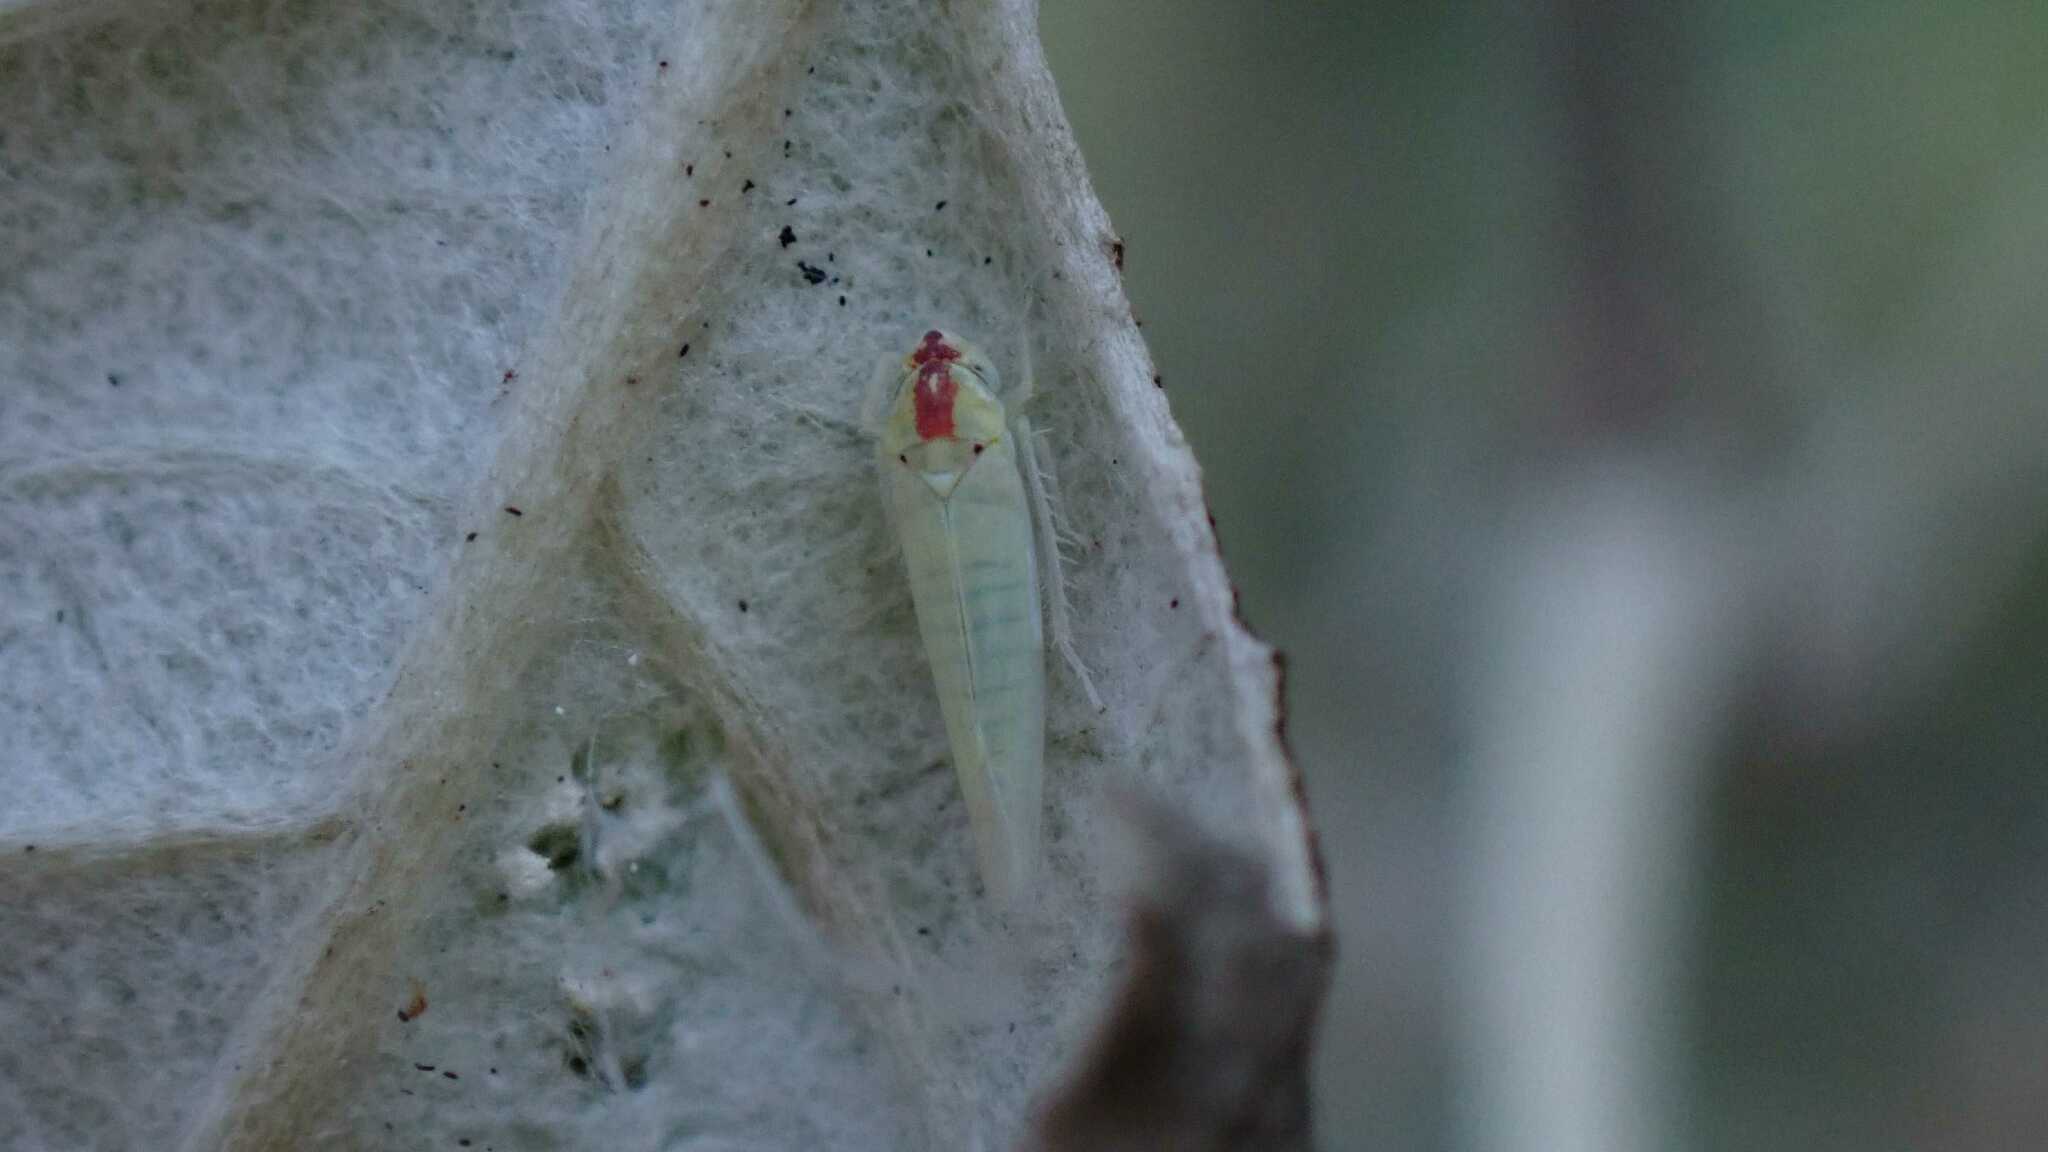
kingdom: Animalia
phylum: Arthropoda
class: Insecta
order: Hemiptera
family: Cicadellidae
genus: Zygina
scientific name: Zygina nivea
